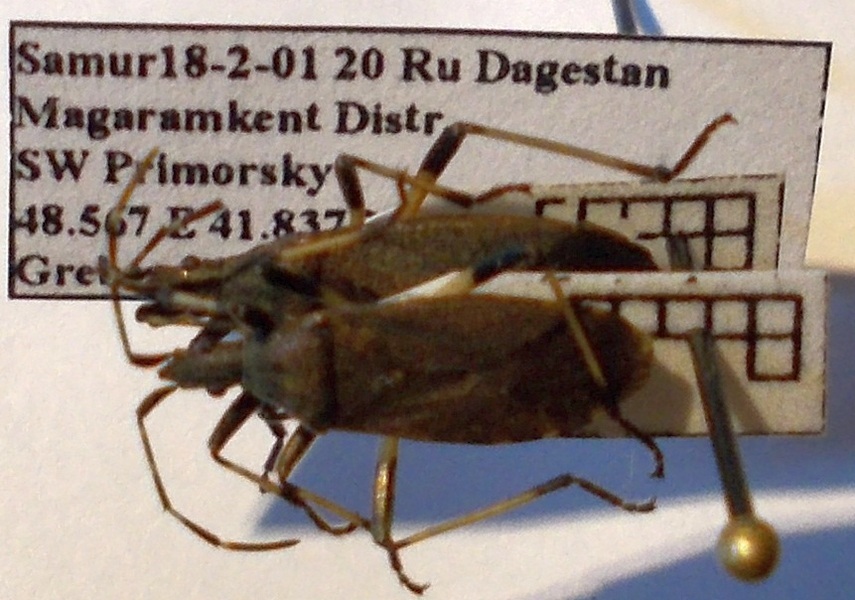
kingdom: Animalia
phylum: Arthropoda
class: Insecta
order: Hemiptera
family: Stenocephalidae
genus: Dicranocephalus
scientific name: Dicranocephalus agilis
